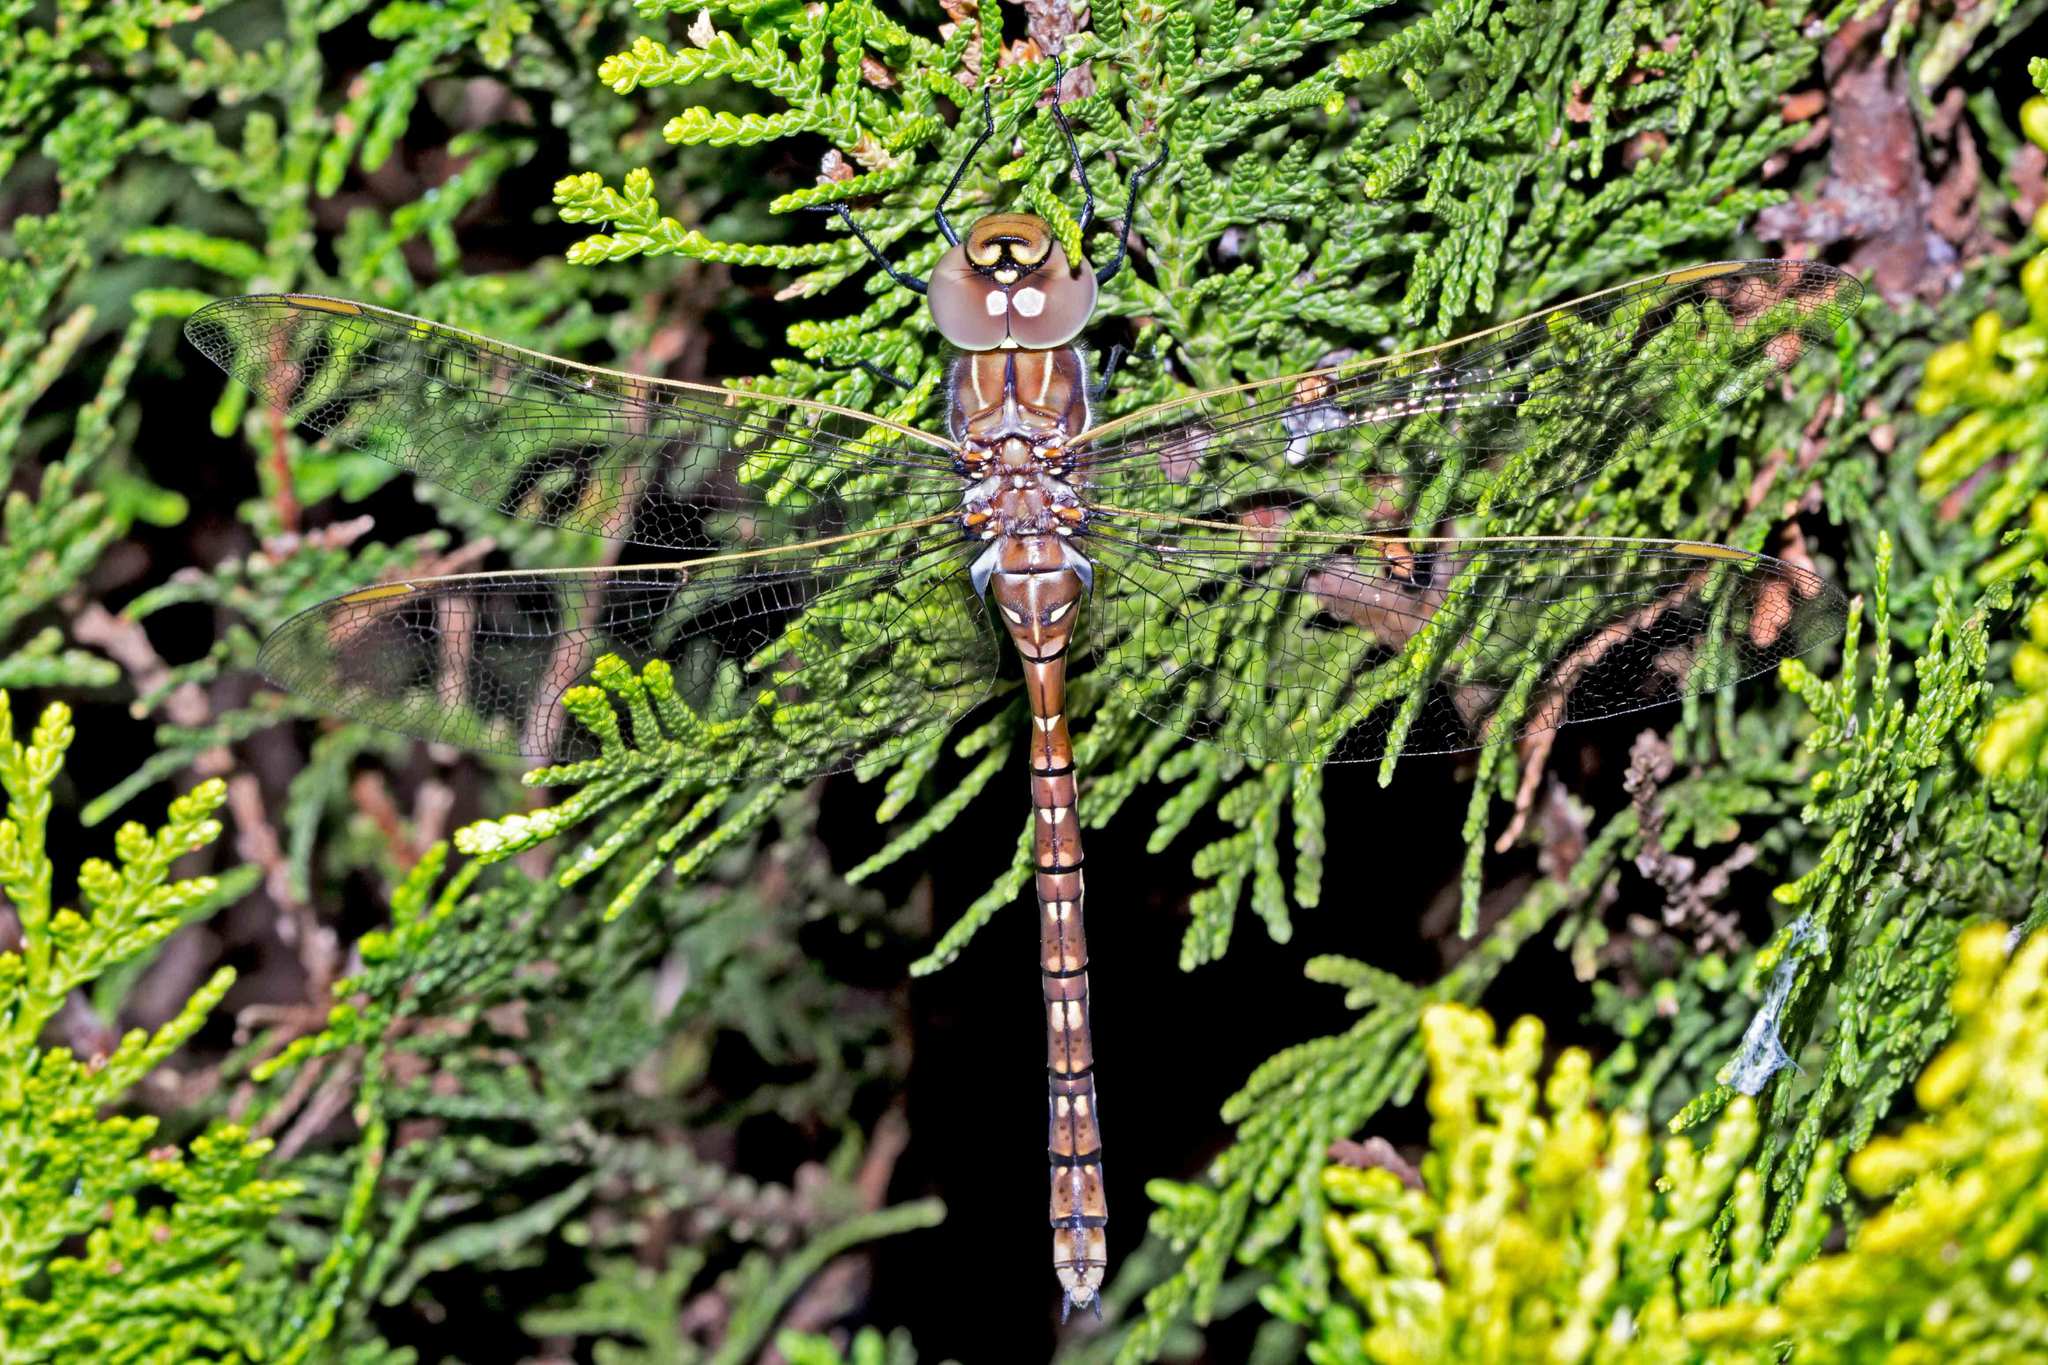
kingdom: Animalia
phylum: Arthropoda
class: Insecta
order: Odonata
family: Aeshnidae
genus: Aeshna
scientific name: Aeshna brevistyla
